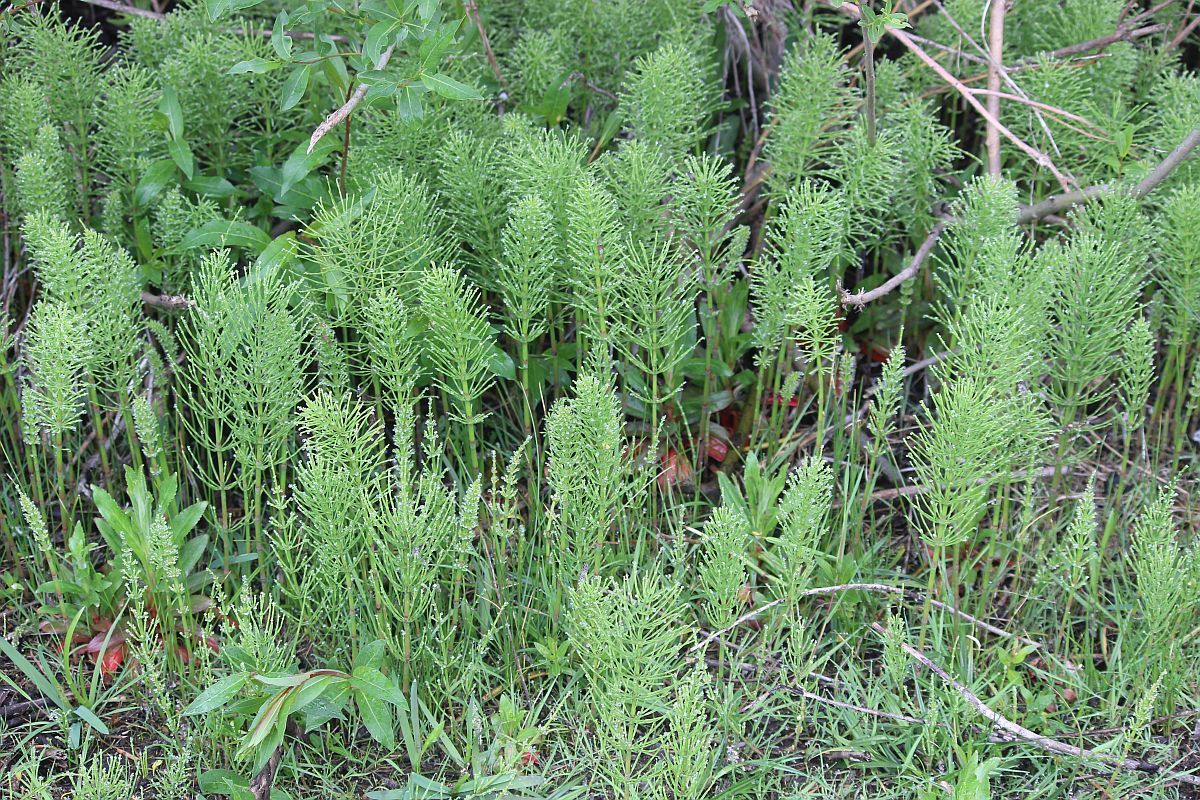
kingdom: Plantae
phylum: Tracheophyta
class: Polypodiopsida
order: Equisetales
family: Equisetaceae
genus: Equisetum
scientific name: Equisetum arvense
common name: Field horsetail
